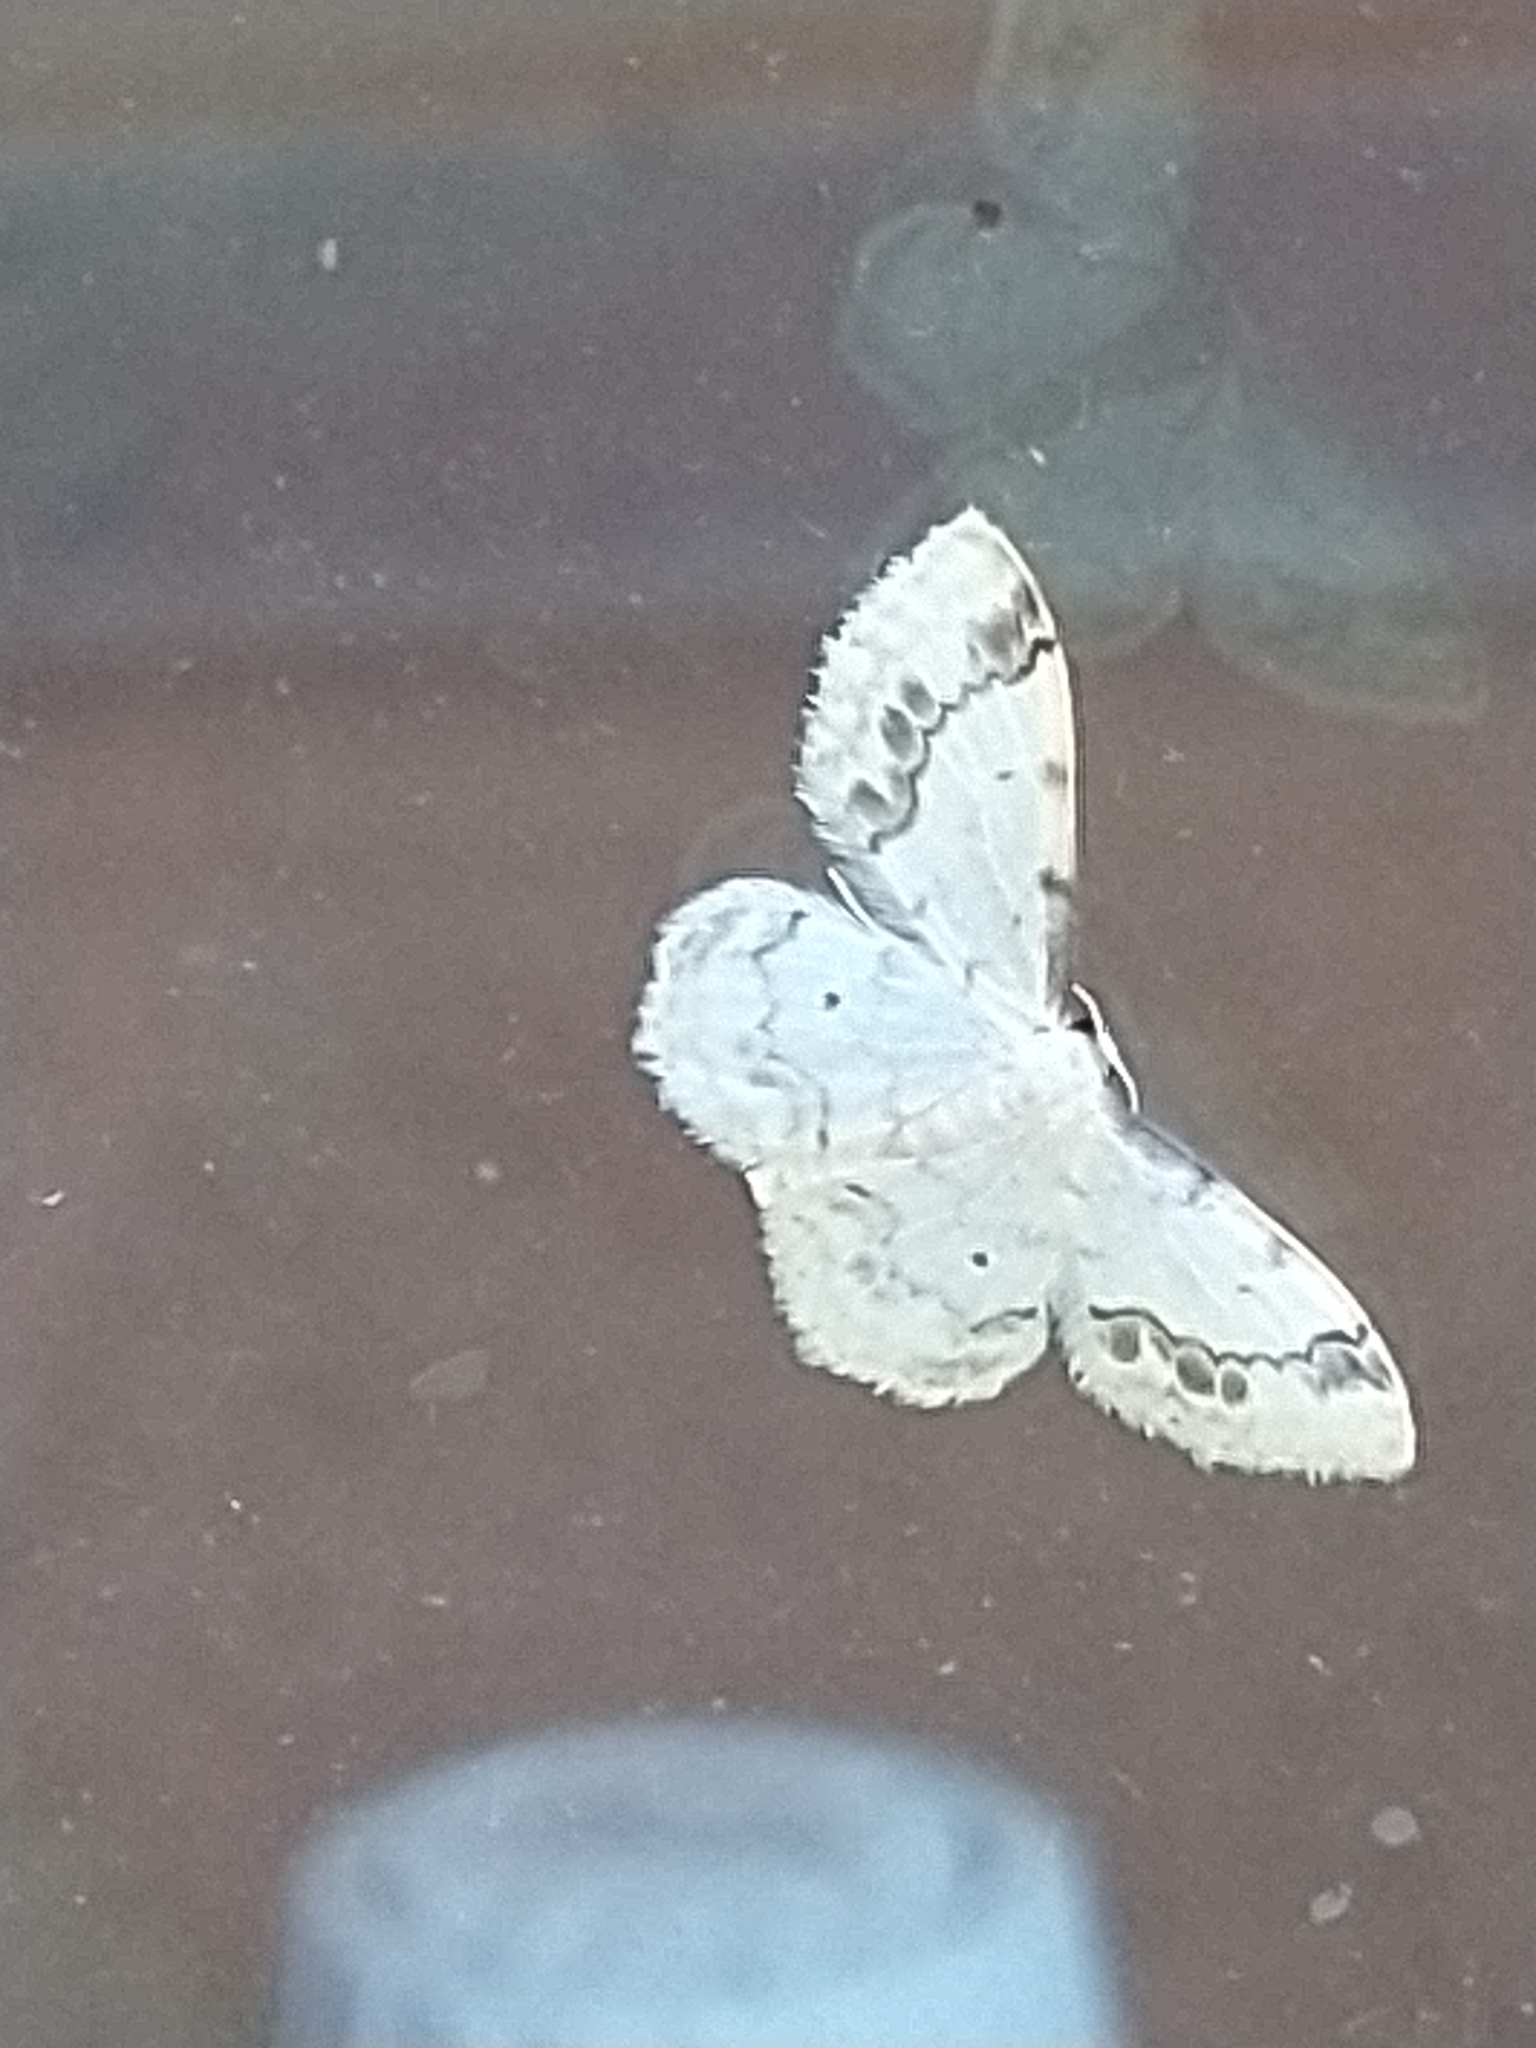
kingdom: Animalia
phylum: Arthropoda
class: Insecta
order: Lepidoptera
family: Geometridae
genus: Idaea
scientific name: Idaea trigeminata
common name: Treble brown spot
